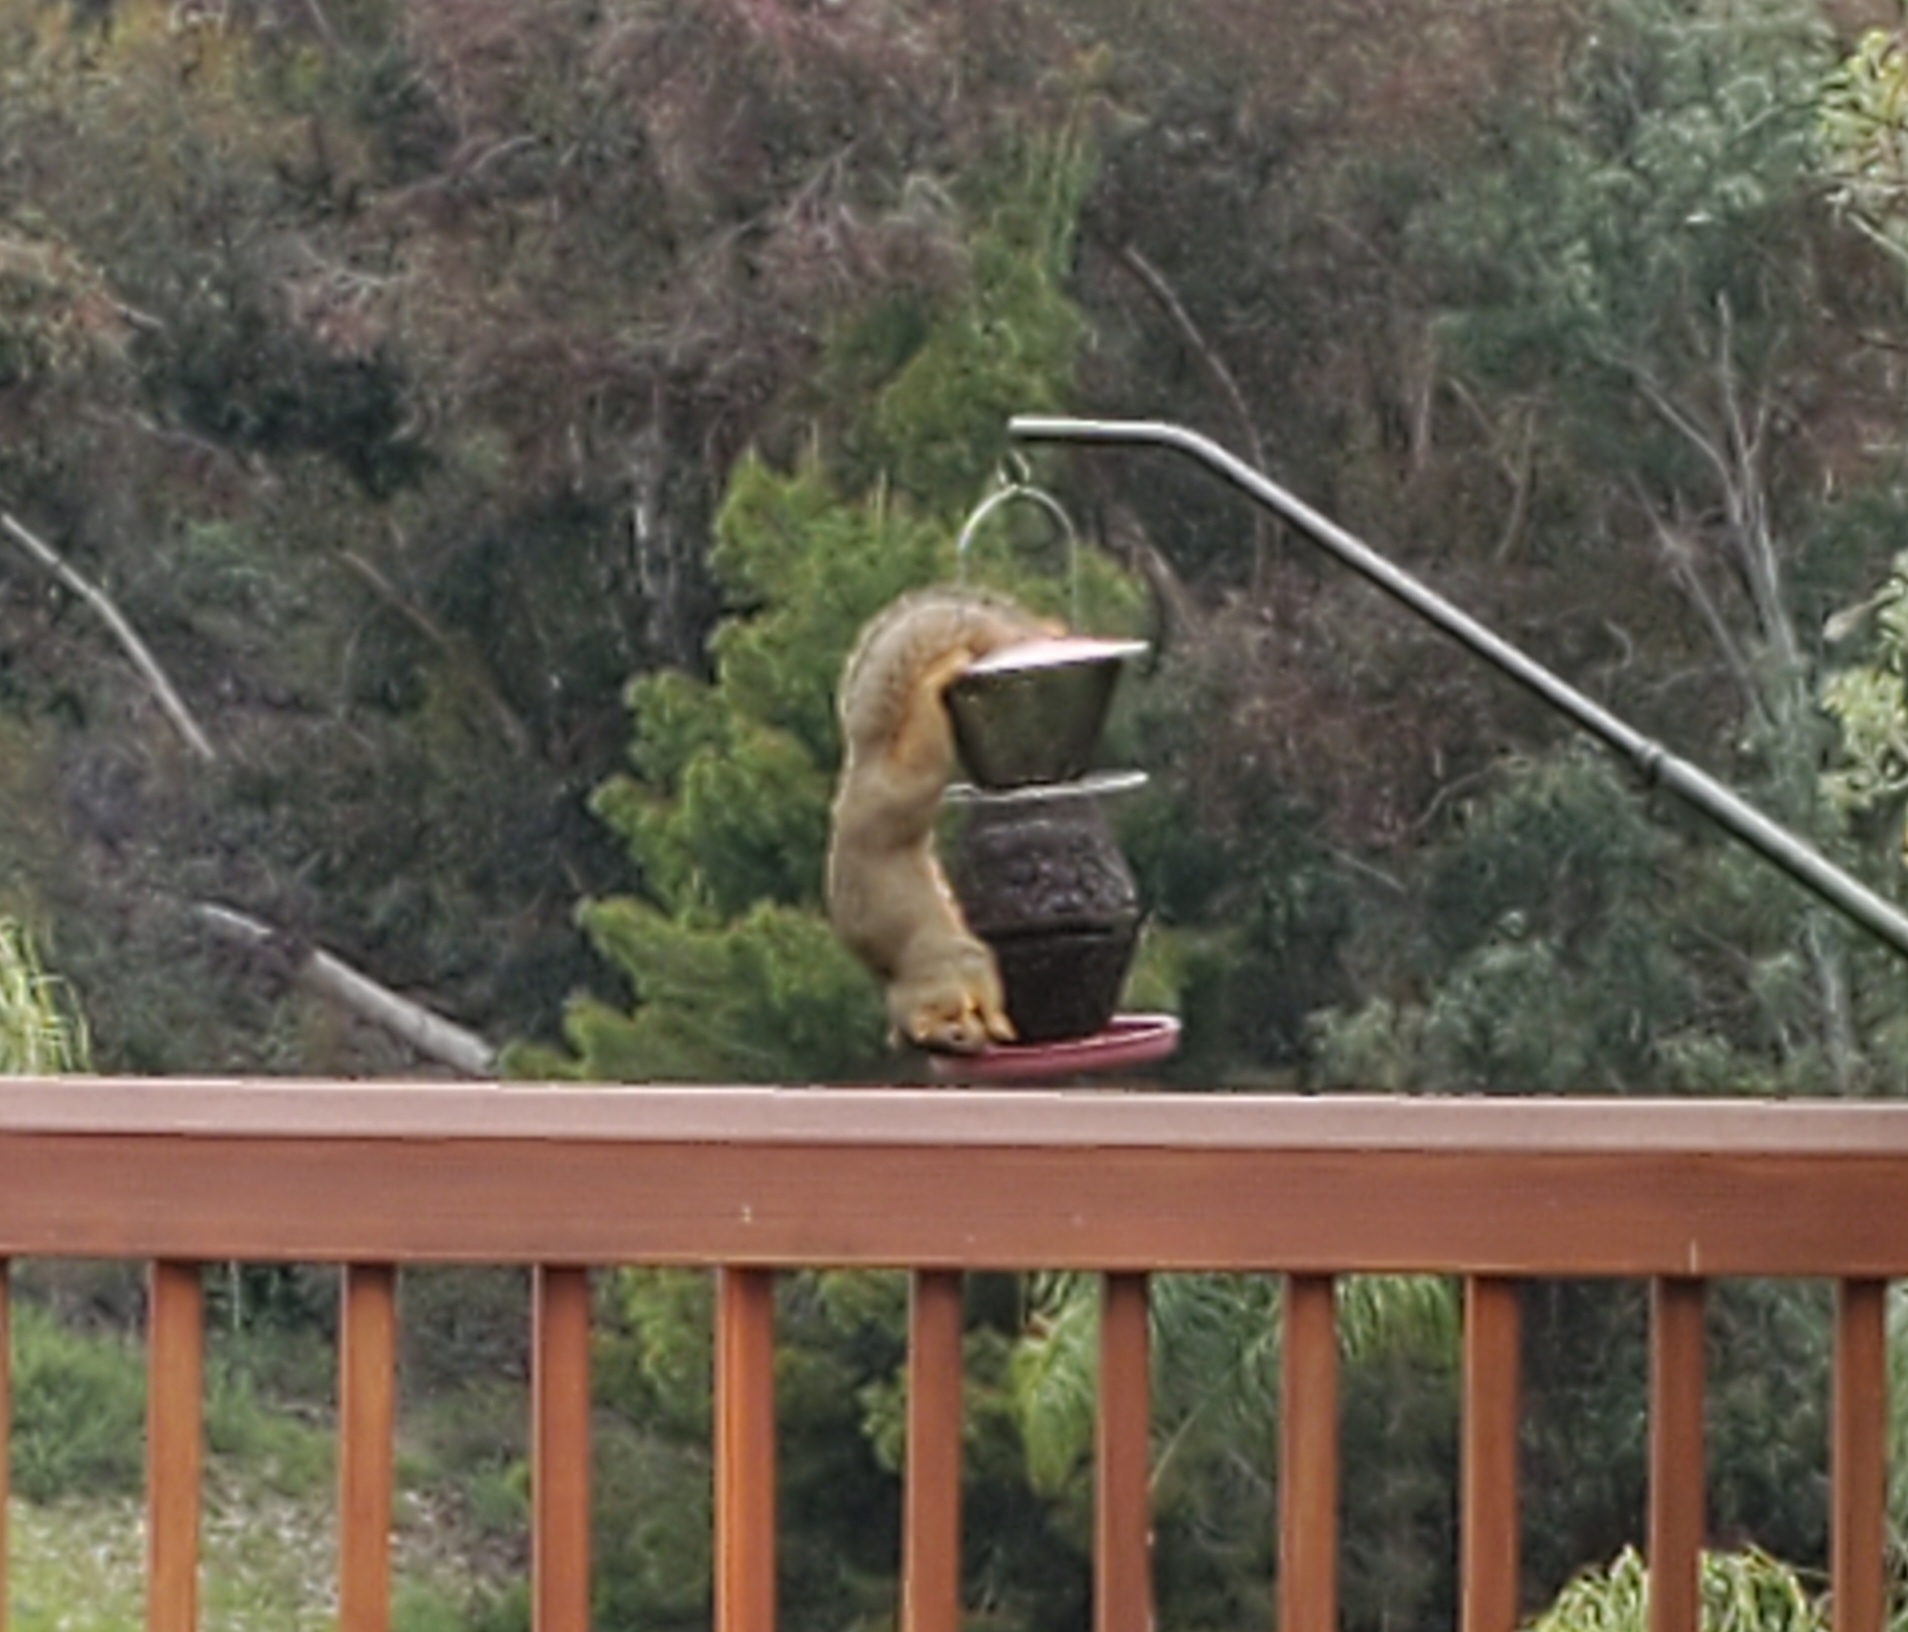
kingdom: Animalia
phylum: Chordata
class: Mammalia
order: Rodentia
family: Sciuridae
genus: Sciurus
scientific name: Sciurus niger
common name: Fox squirrel
